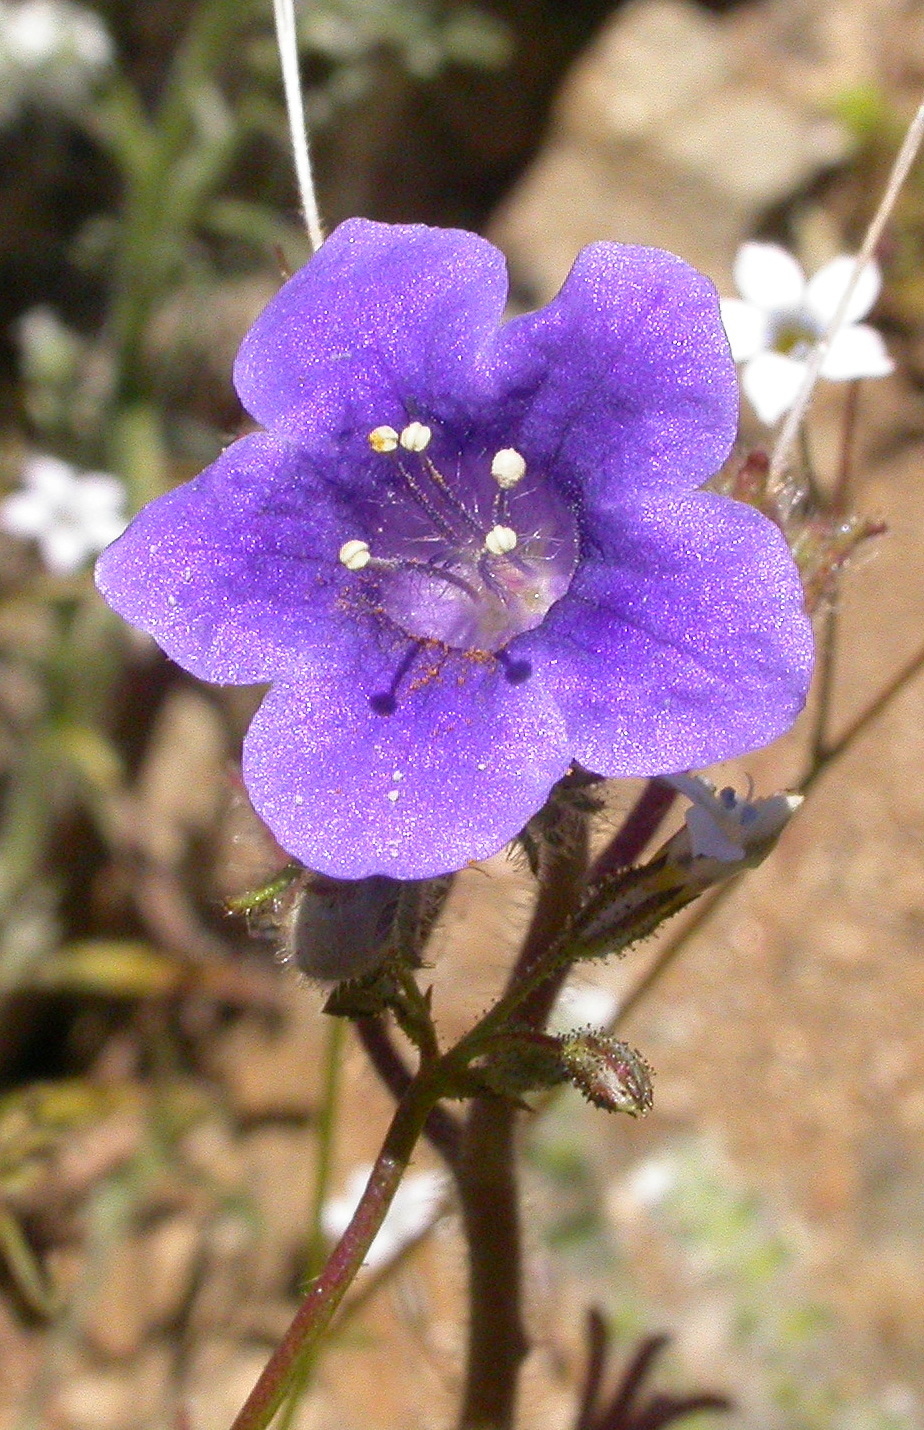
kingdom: Plantae
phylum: Tracheophyta
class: Magnoliopsida
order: Boraginales
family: Hydrophyllaceae
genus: Phacelia
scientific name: Phacelia minor
